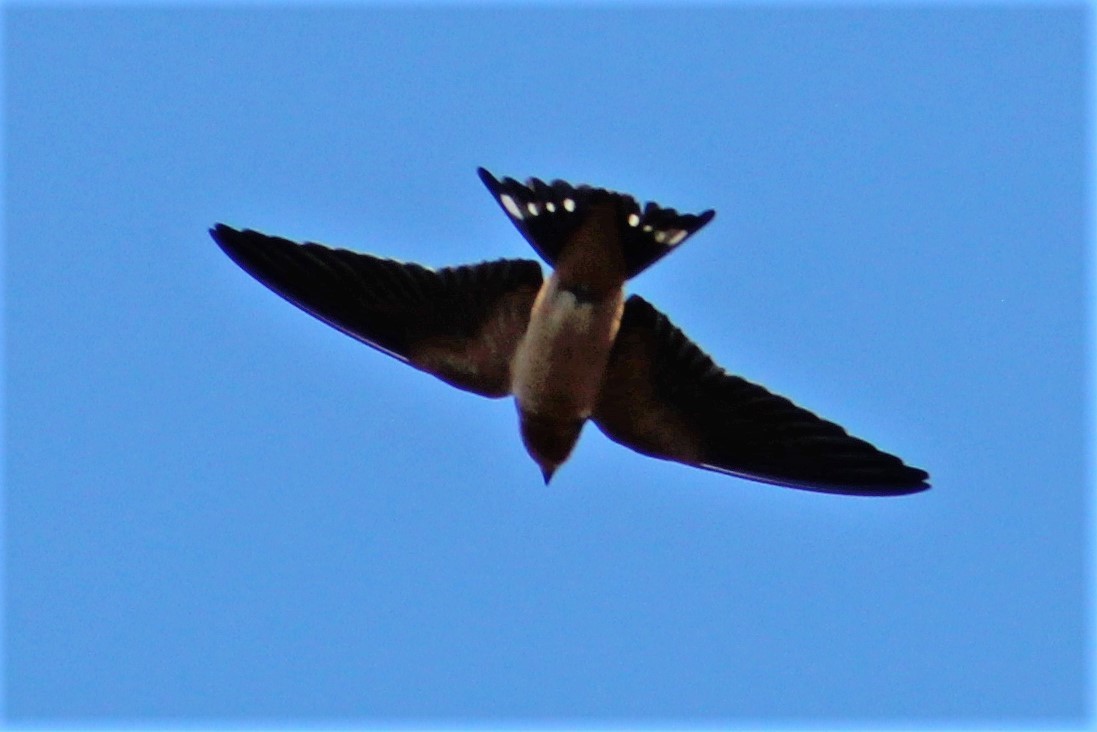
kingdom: Animalia
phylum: Chordata
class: Aves
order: Passeriformes
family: Hirundinidae
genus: Hirundo
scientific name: Hirundo rustica
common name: Barn swallow
